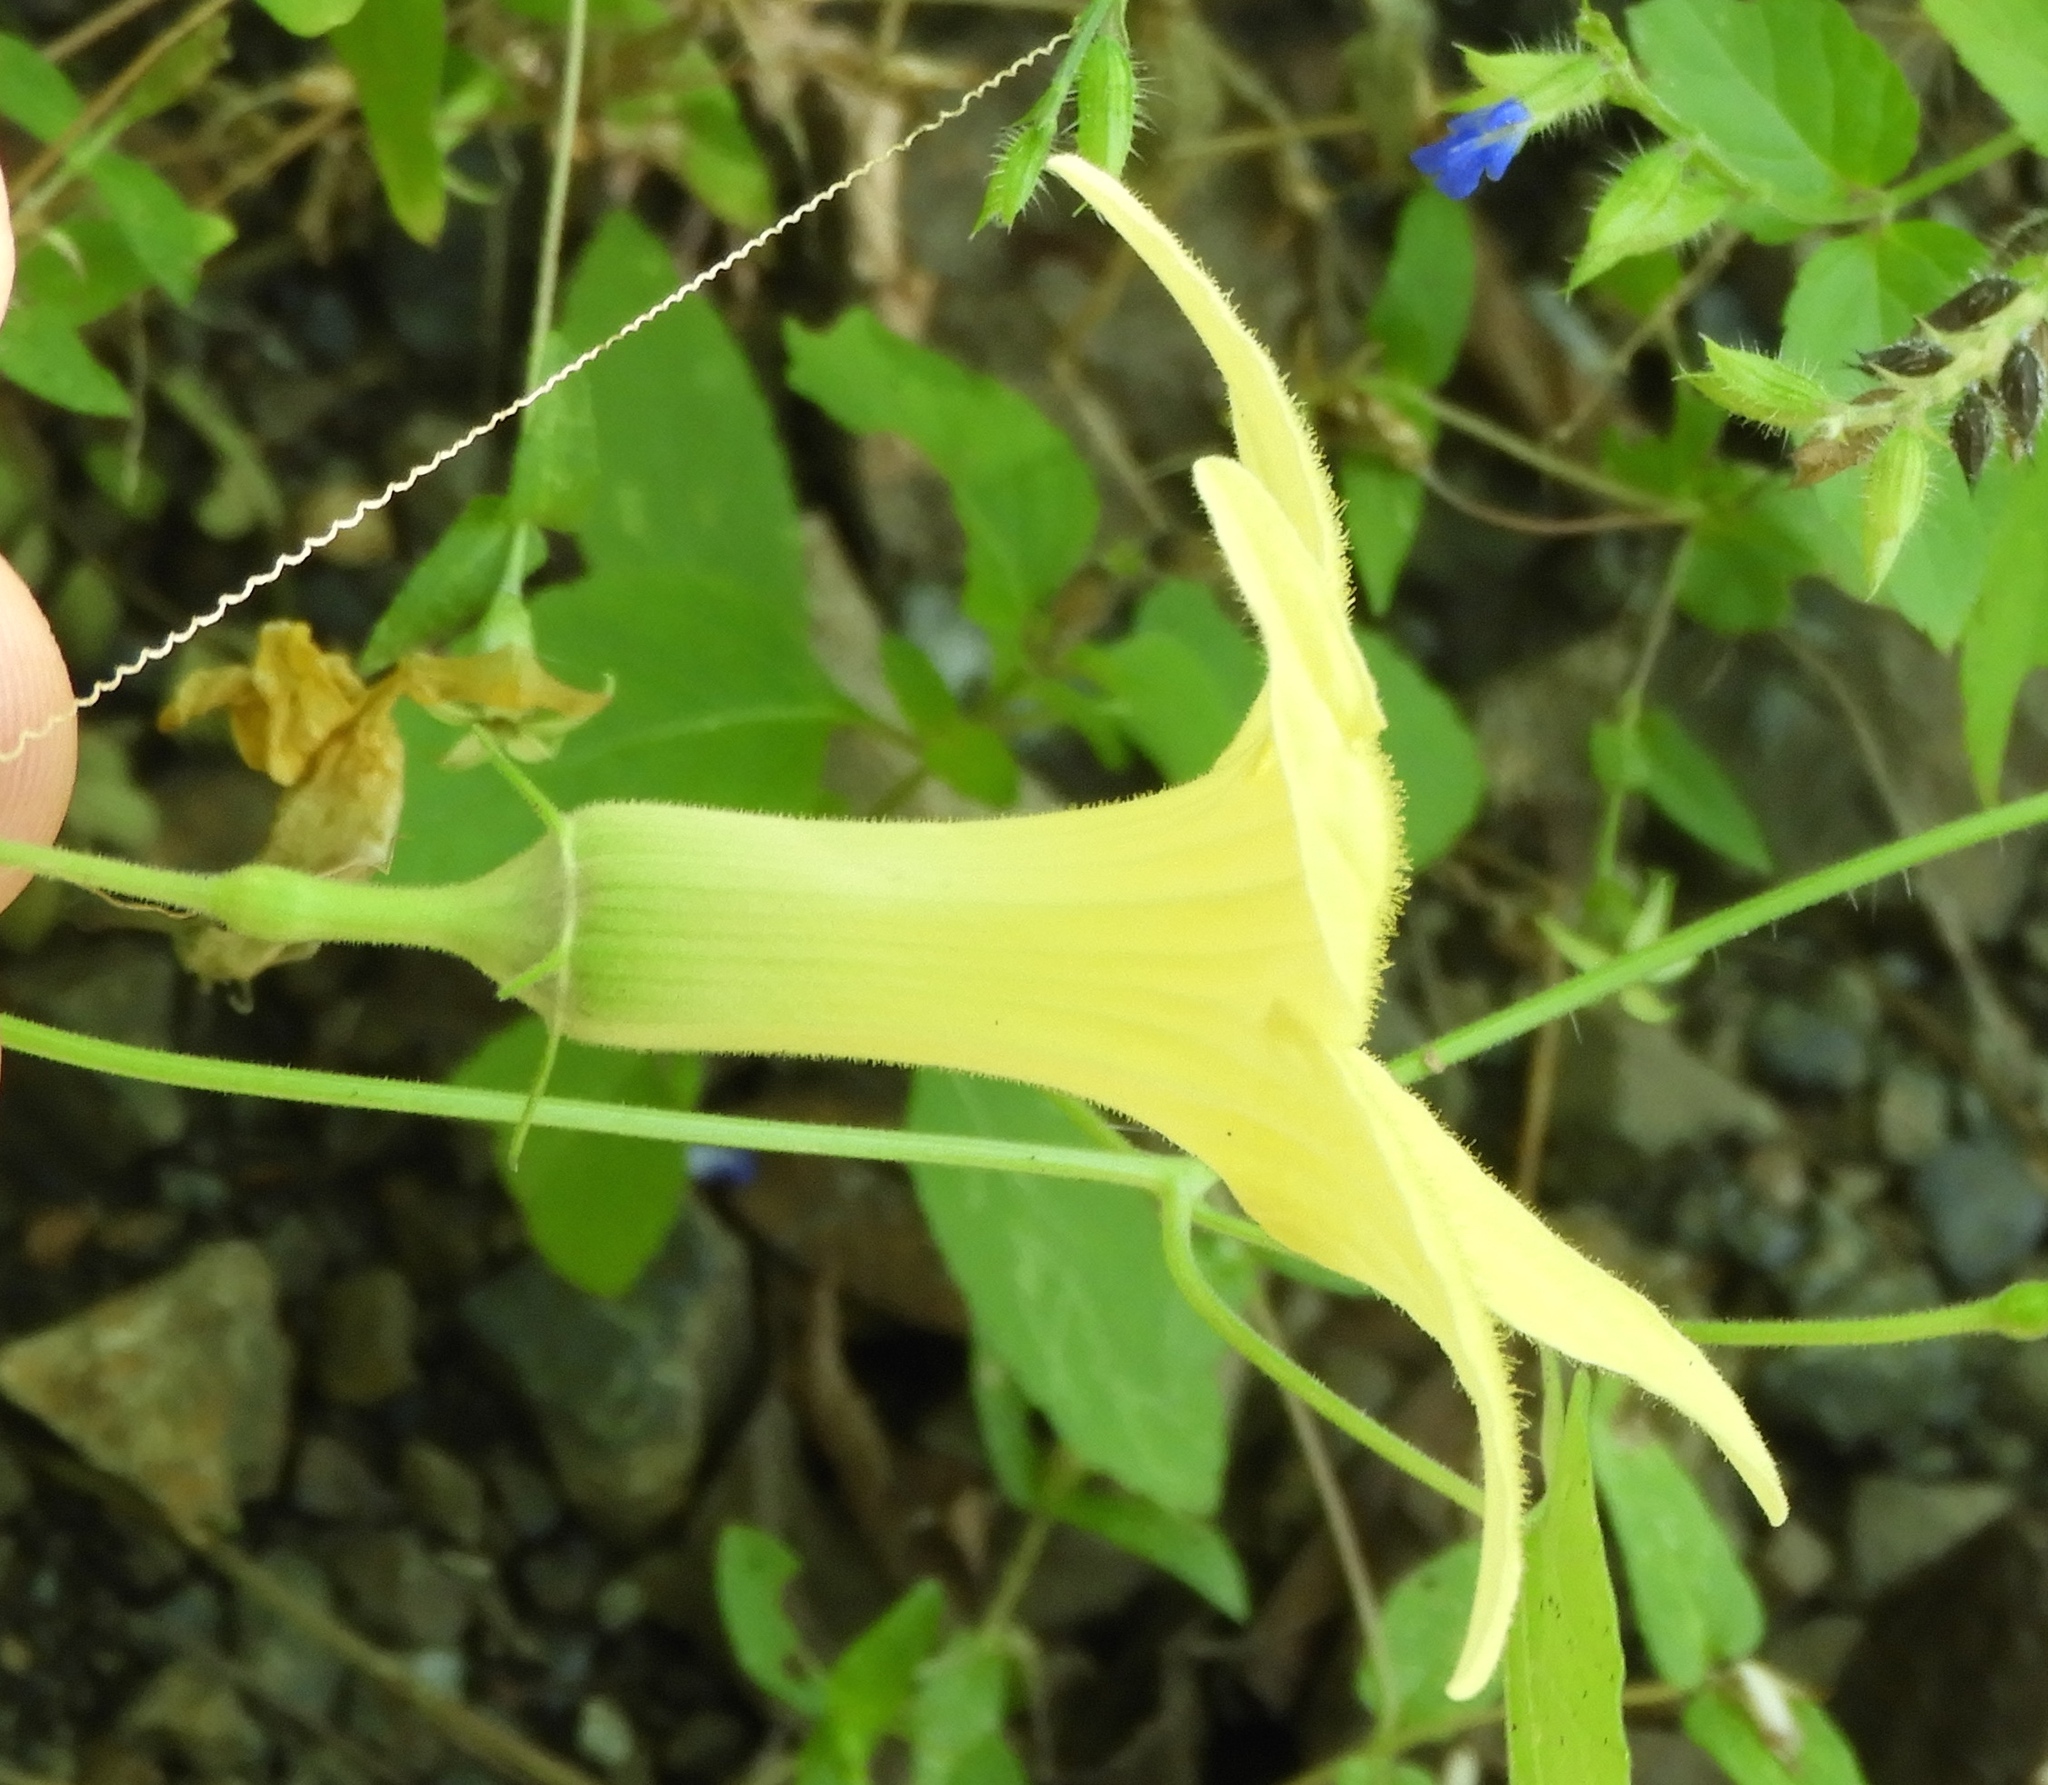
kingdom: Plantae
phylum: Tracheophyta
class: Magnoliopsida
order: Cucurbitales
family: Cucurbitaceae
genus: Schizocarpum
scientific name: Schizocarpum palmeri
